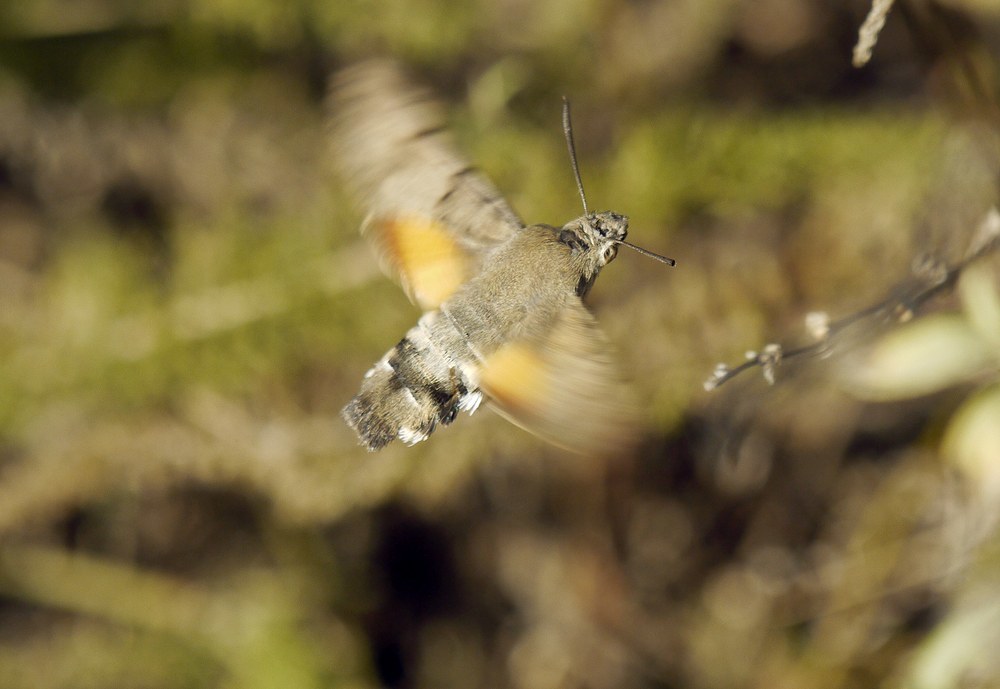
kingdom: Animalia
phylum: Arthropoda
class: Insecta
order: Lepidoptera
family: Sphingidae
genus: Macroglossum
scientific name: Macroglossum stellatarum
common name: Humming-bird hawk-moth
